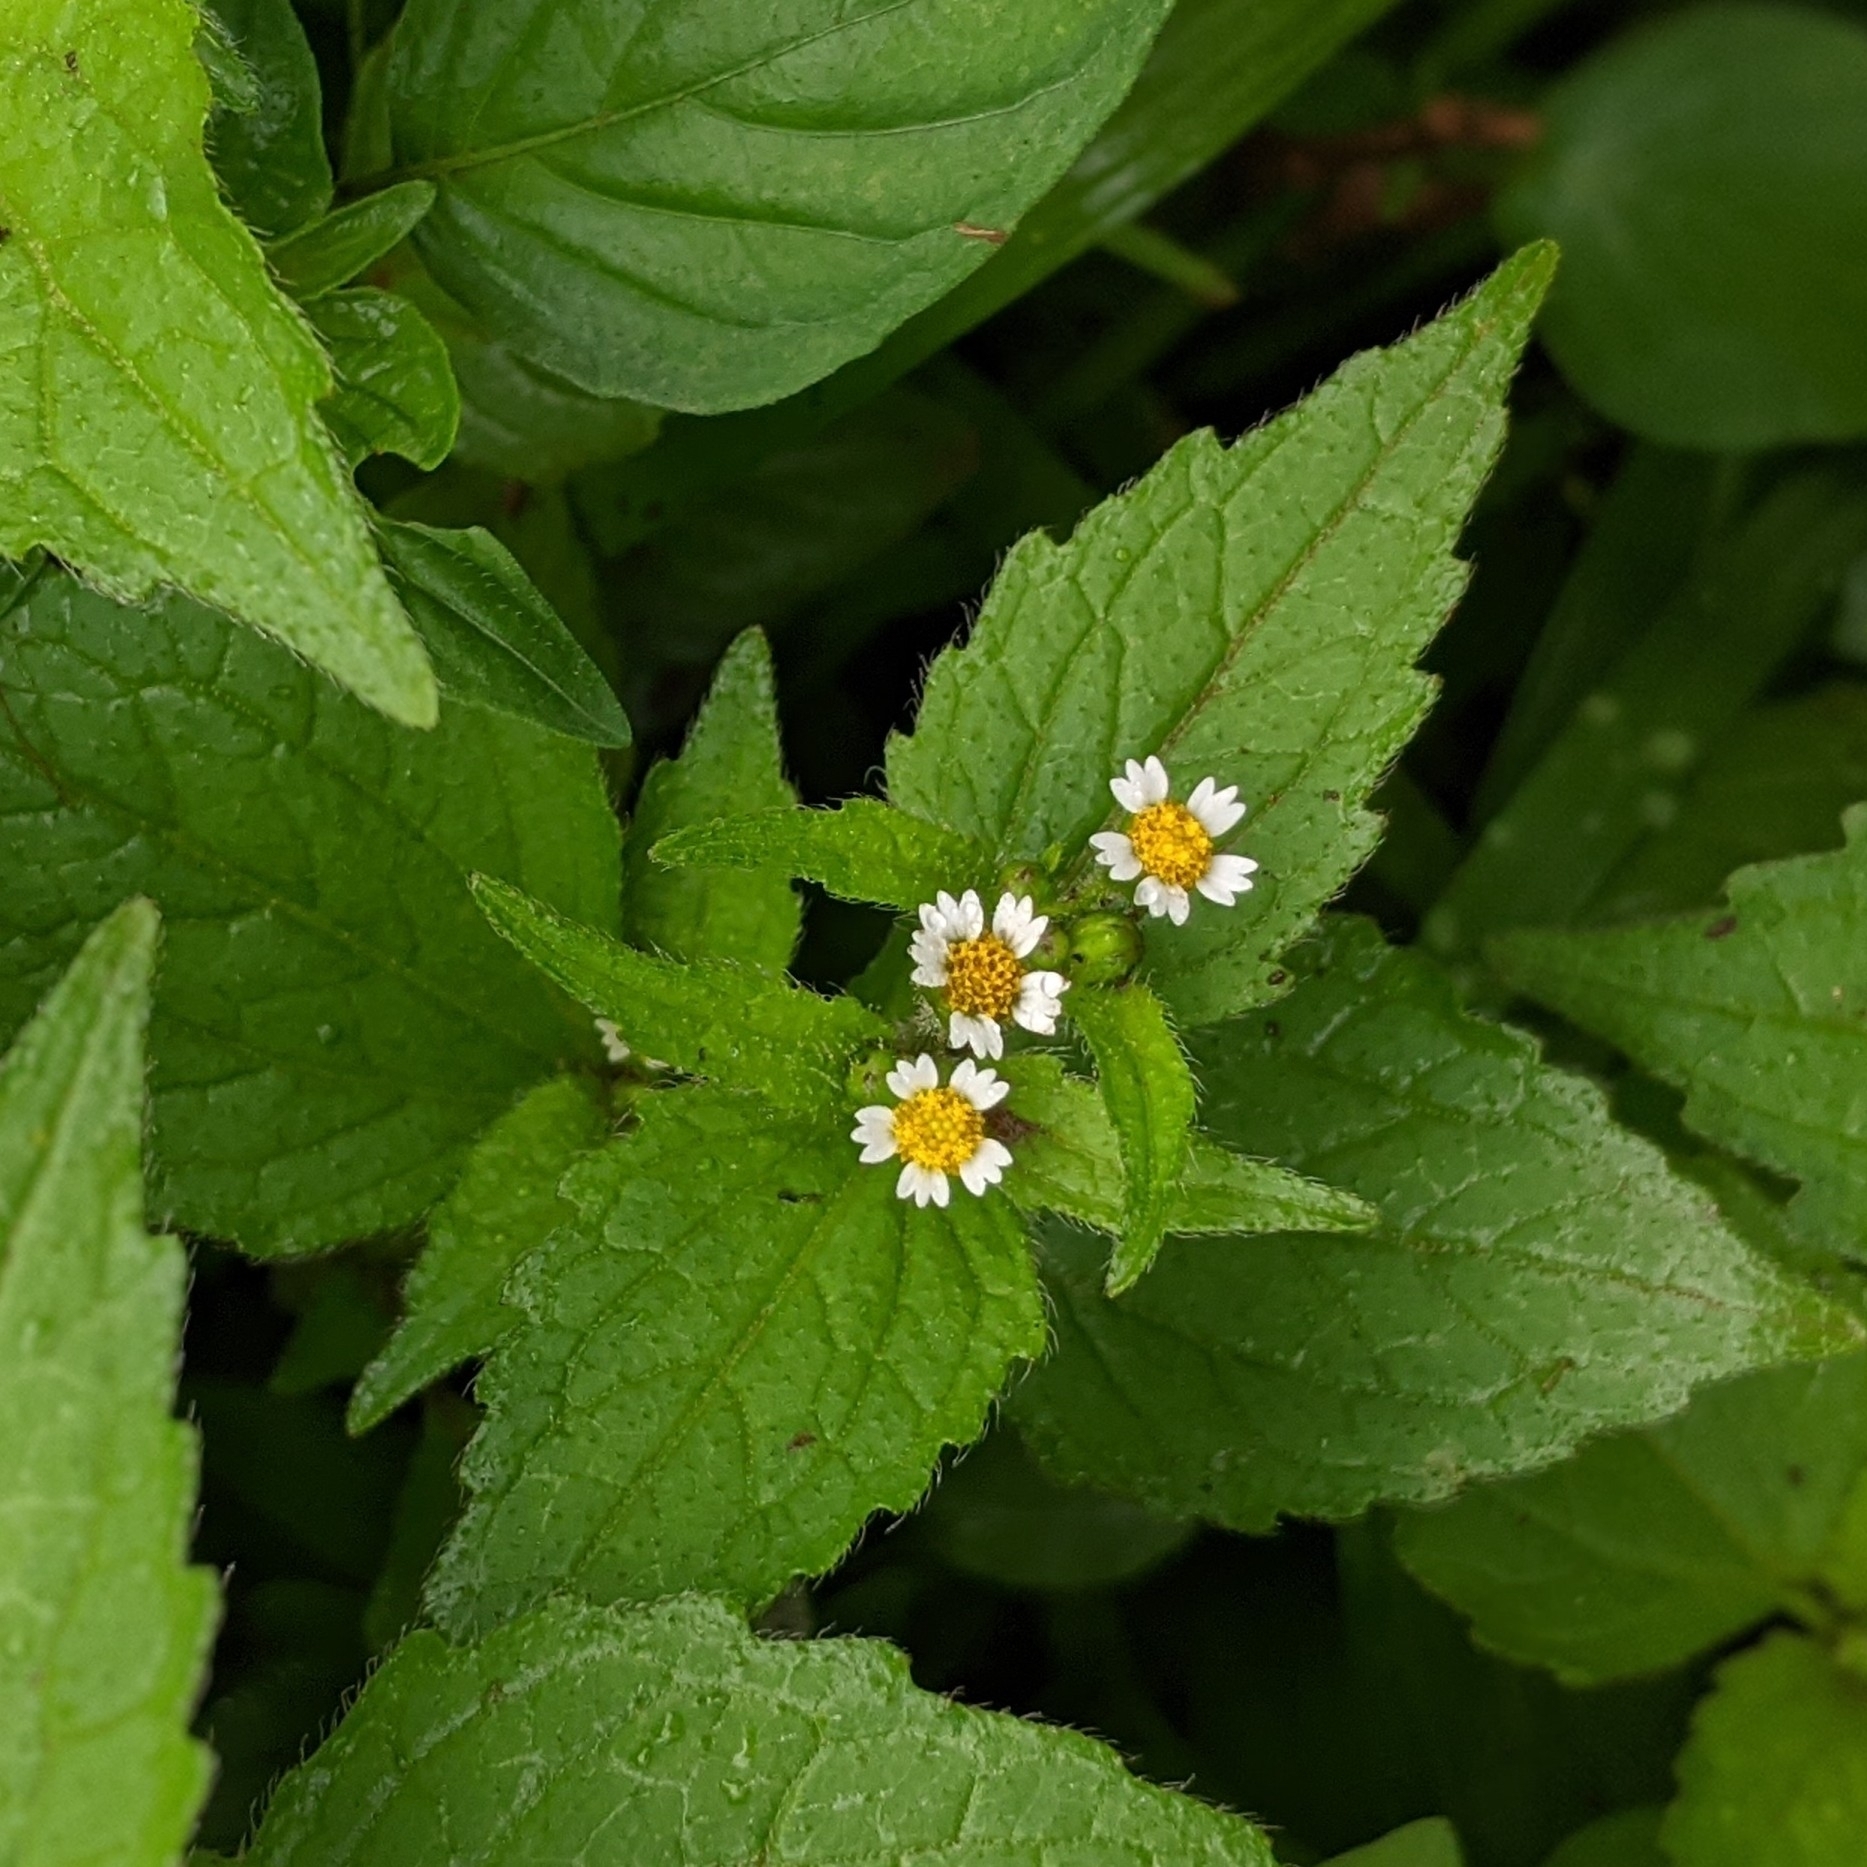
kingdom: Plantae
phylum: Tracheophyta
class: Magnoliopsida
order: Asterales
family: Asteraceae
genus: Galinsoga
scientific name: Galinsoga quadriradiata
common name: Shaggy soldier
